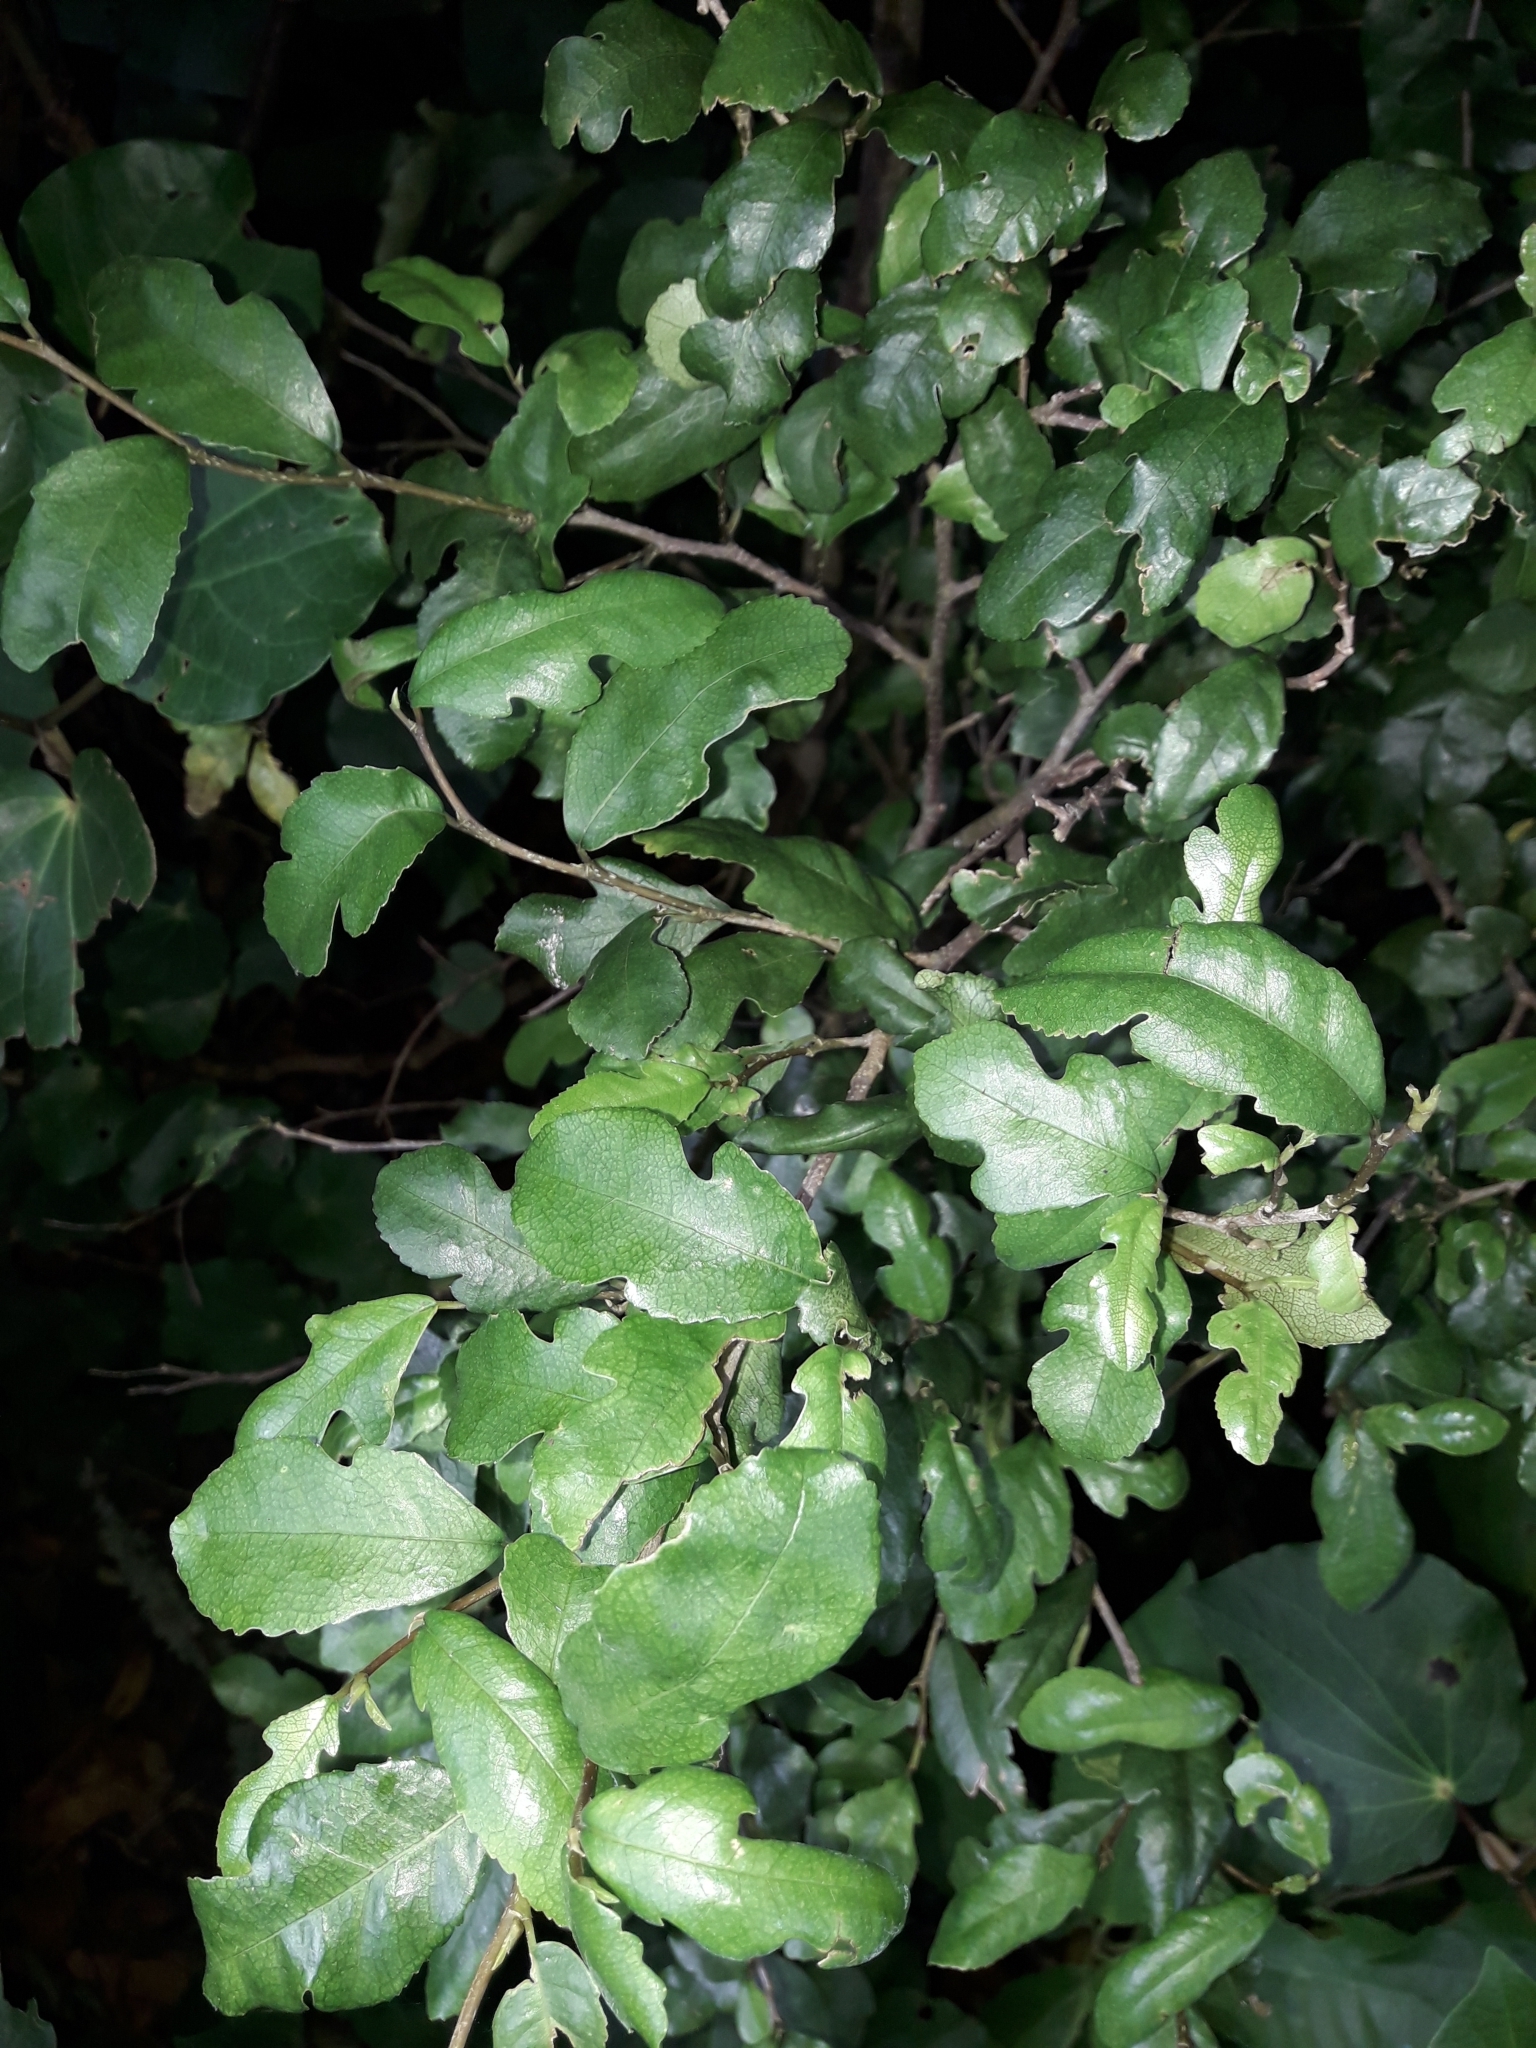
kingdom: Plantae
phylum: Tracheophyta
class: Magnoliopsida
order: Rosales
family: Moraceae
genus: Paratrophis
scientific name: Paratrophis
